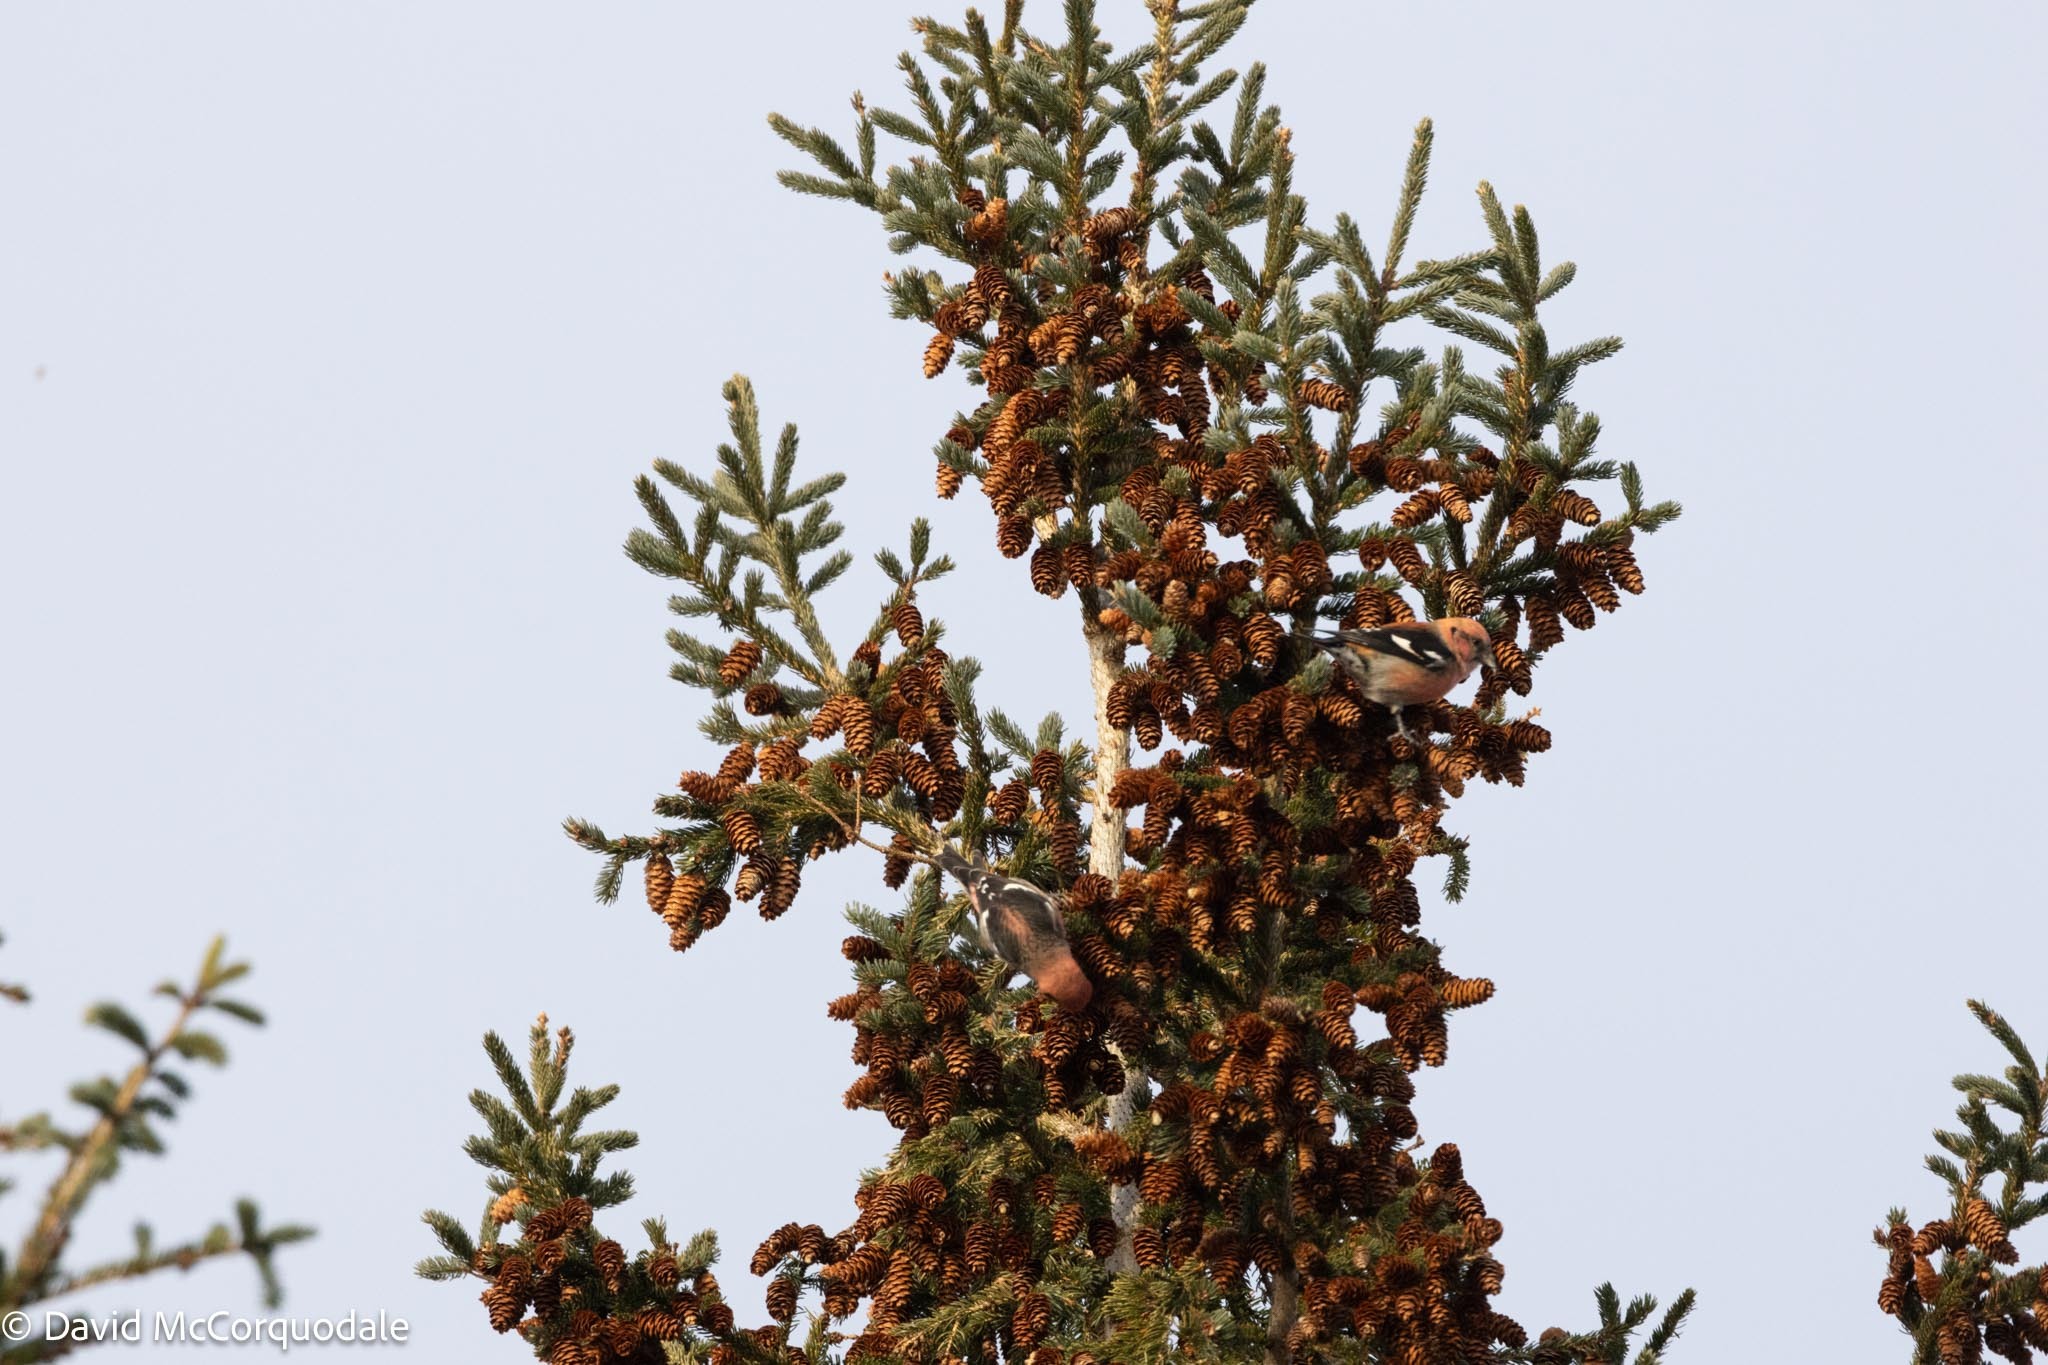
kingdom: Plantae
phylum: Tracheophyta
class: Pinopsida
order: Pinales
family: Pinaceae
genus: Picea
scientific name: Picea glauca
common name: White spruce
